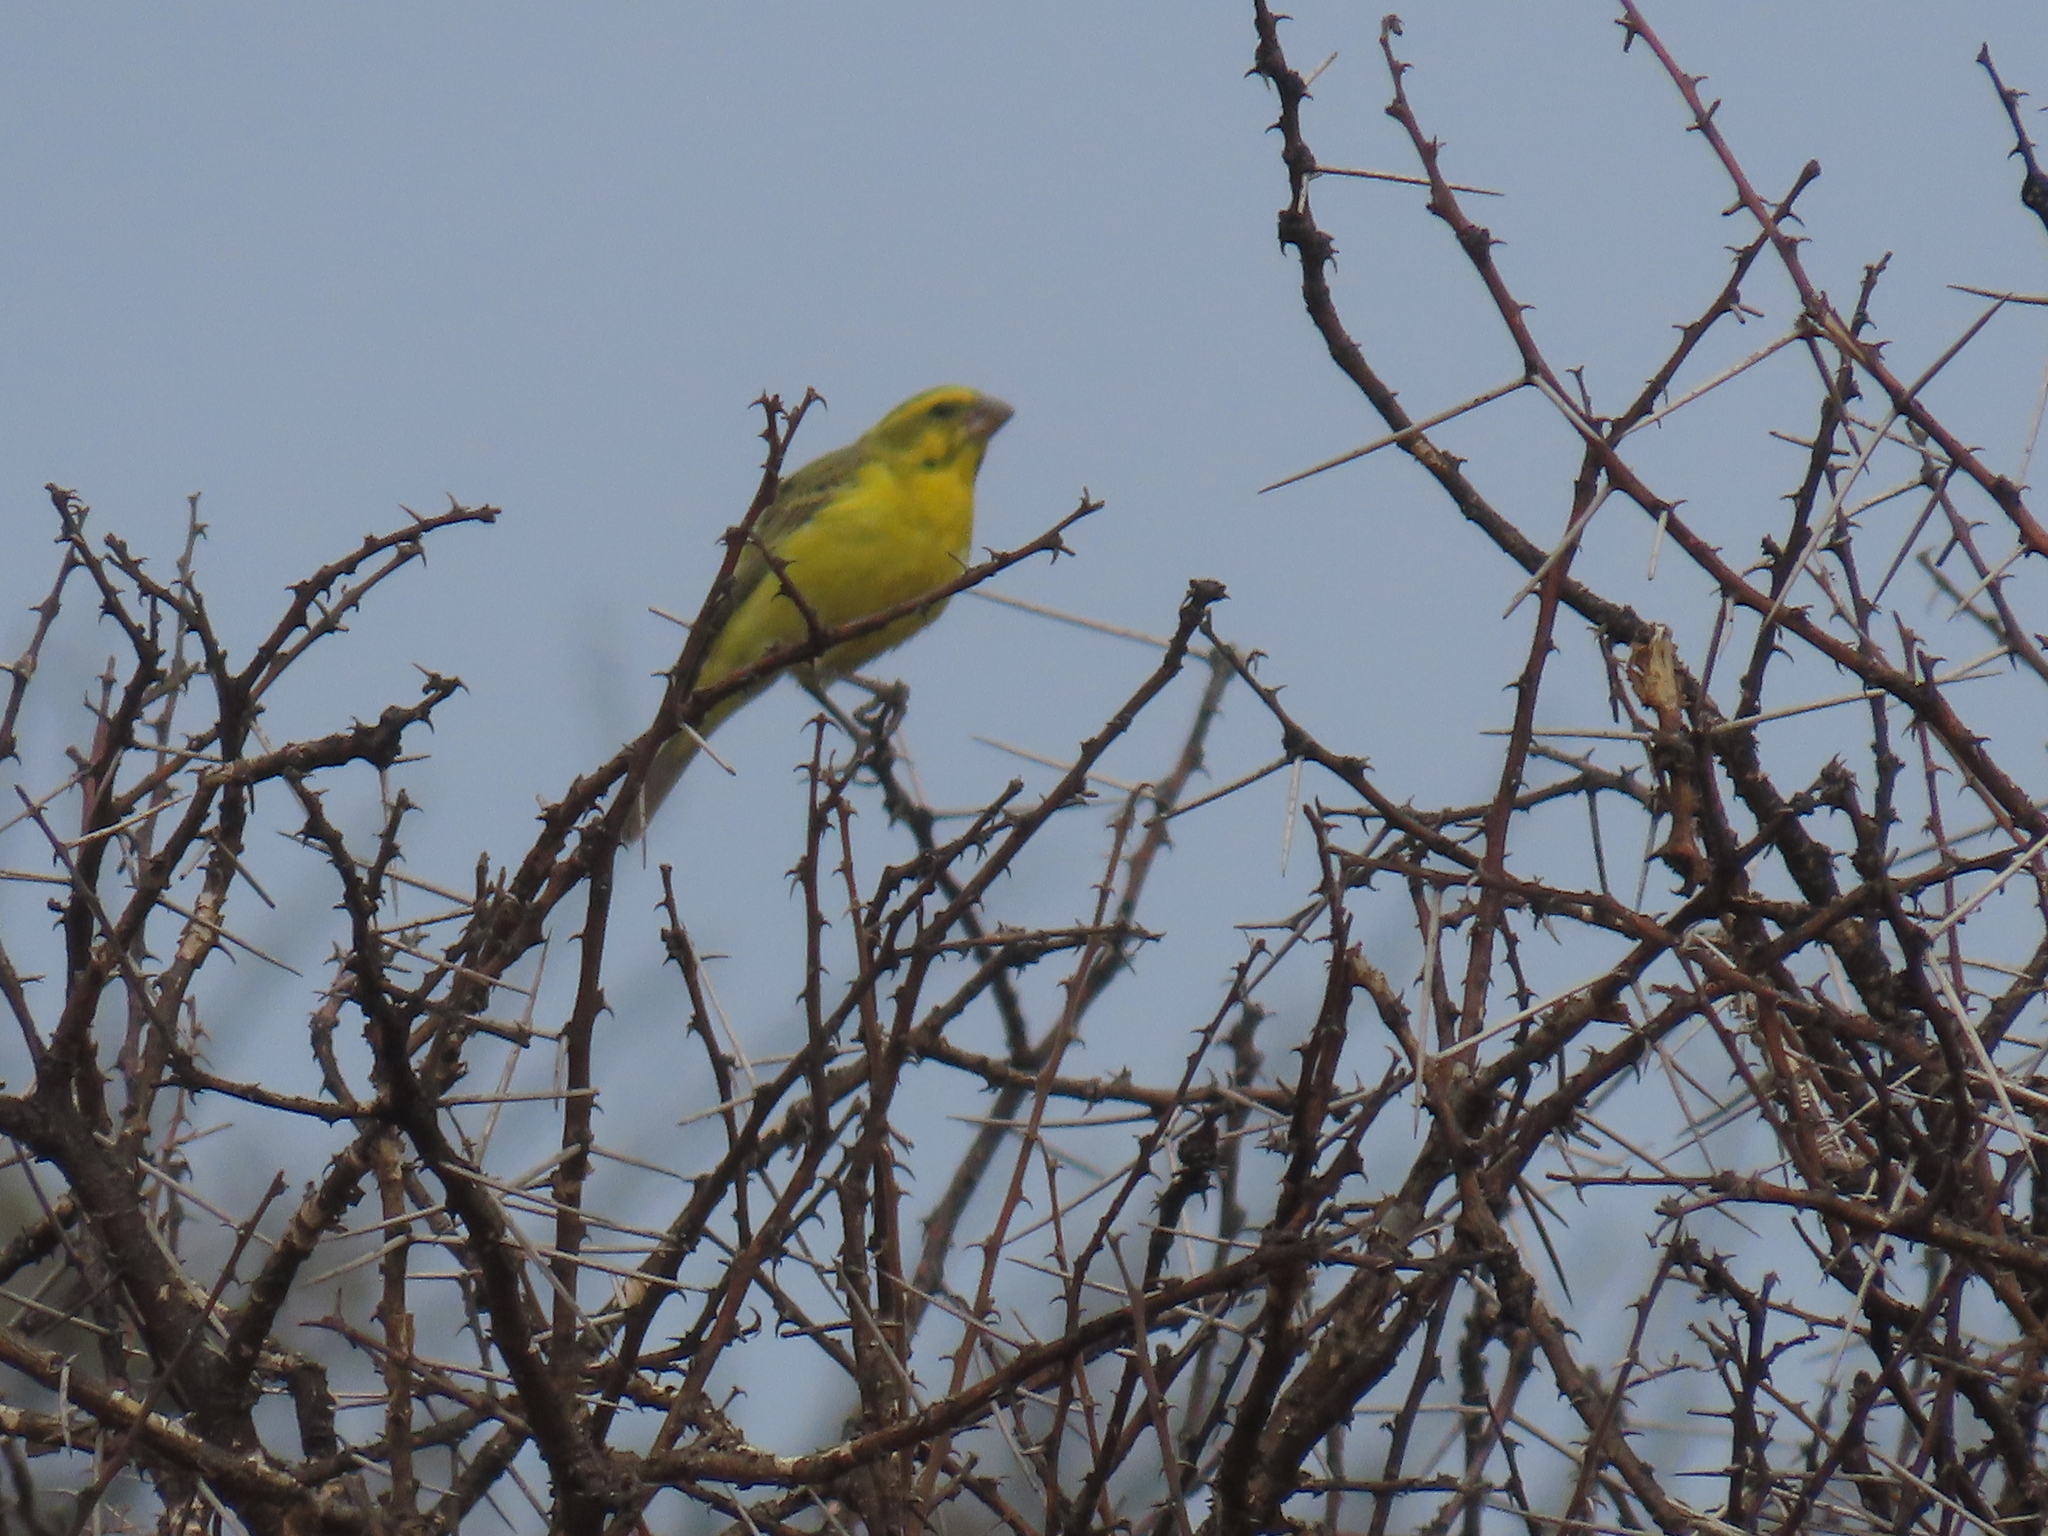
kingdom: Animalia
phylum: Chordata
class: Aves
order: Passeriformes
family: Fringillidae
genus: Crithagra
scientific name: Crithagra flaviventris
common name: Yellow canary
